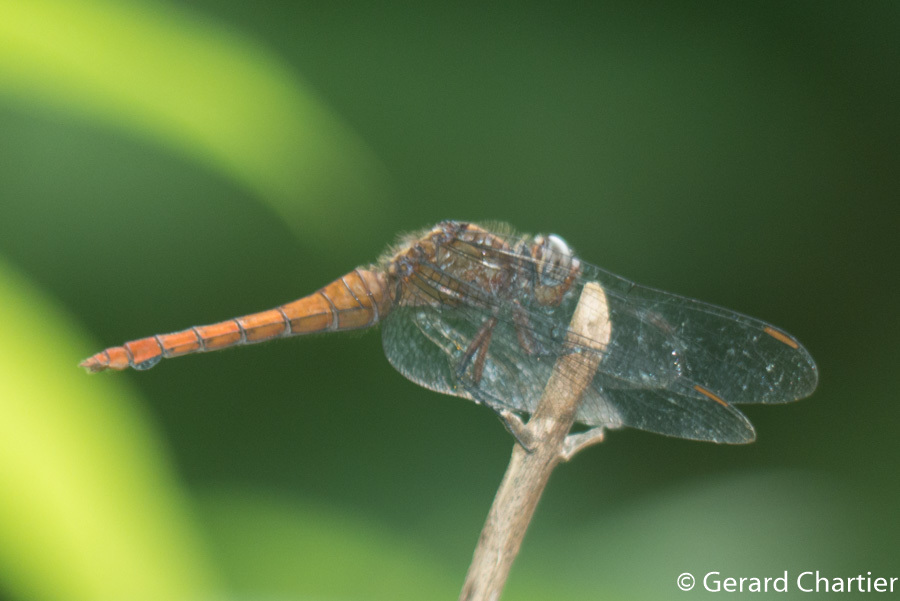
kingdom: Animalia
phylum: Arthropoda
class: Insecta
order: Odonata
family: Libellulidae
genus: Orthetrum
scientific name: Orthetrum chrysis
